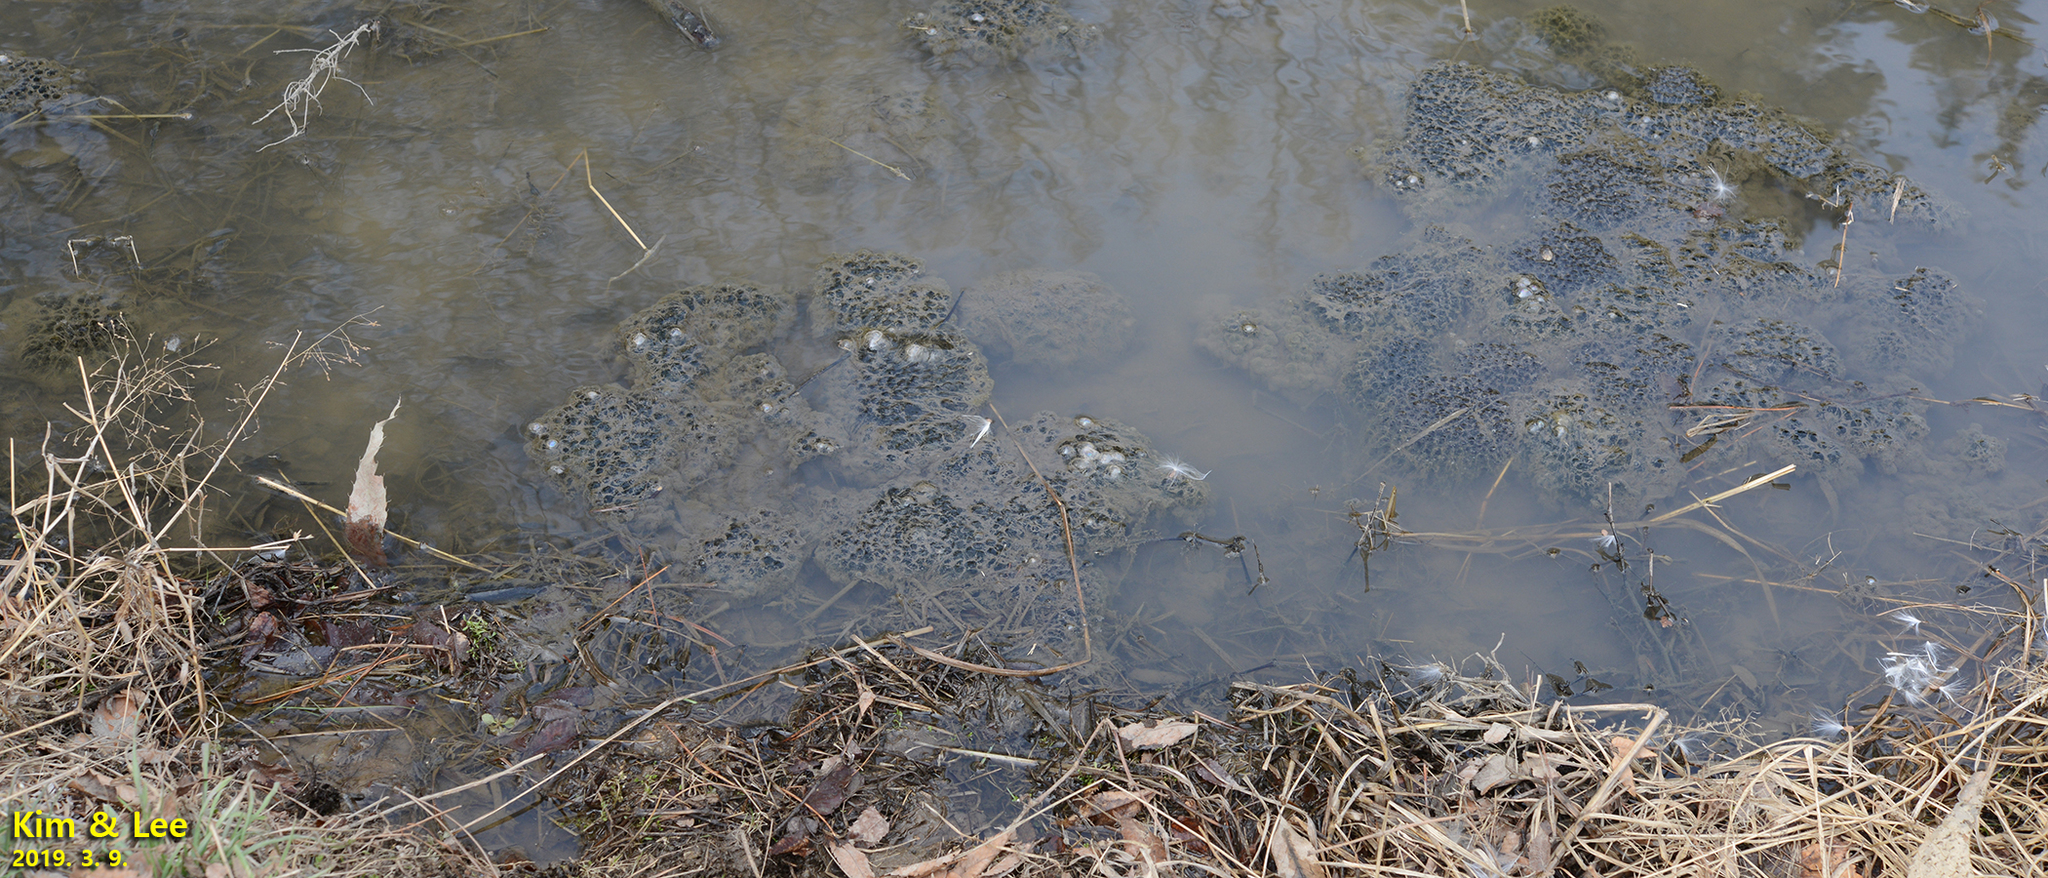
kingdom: Animalia
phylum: Chordata
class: Amphibia
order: Anura
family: Ranidae
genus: Rana
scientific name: Rana uenoi
